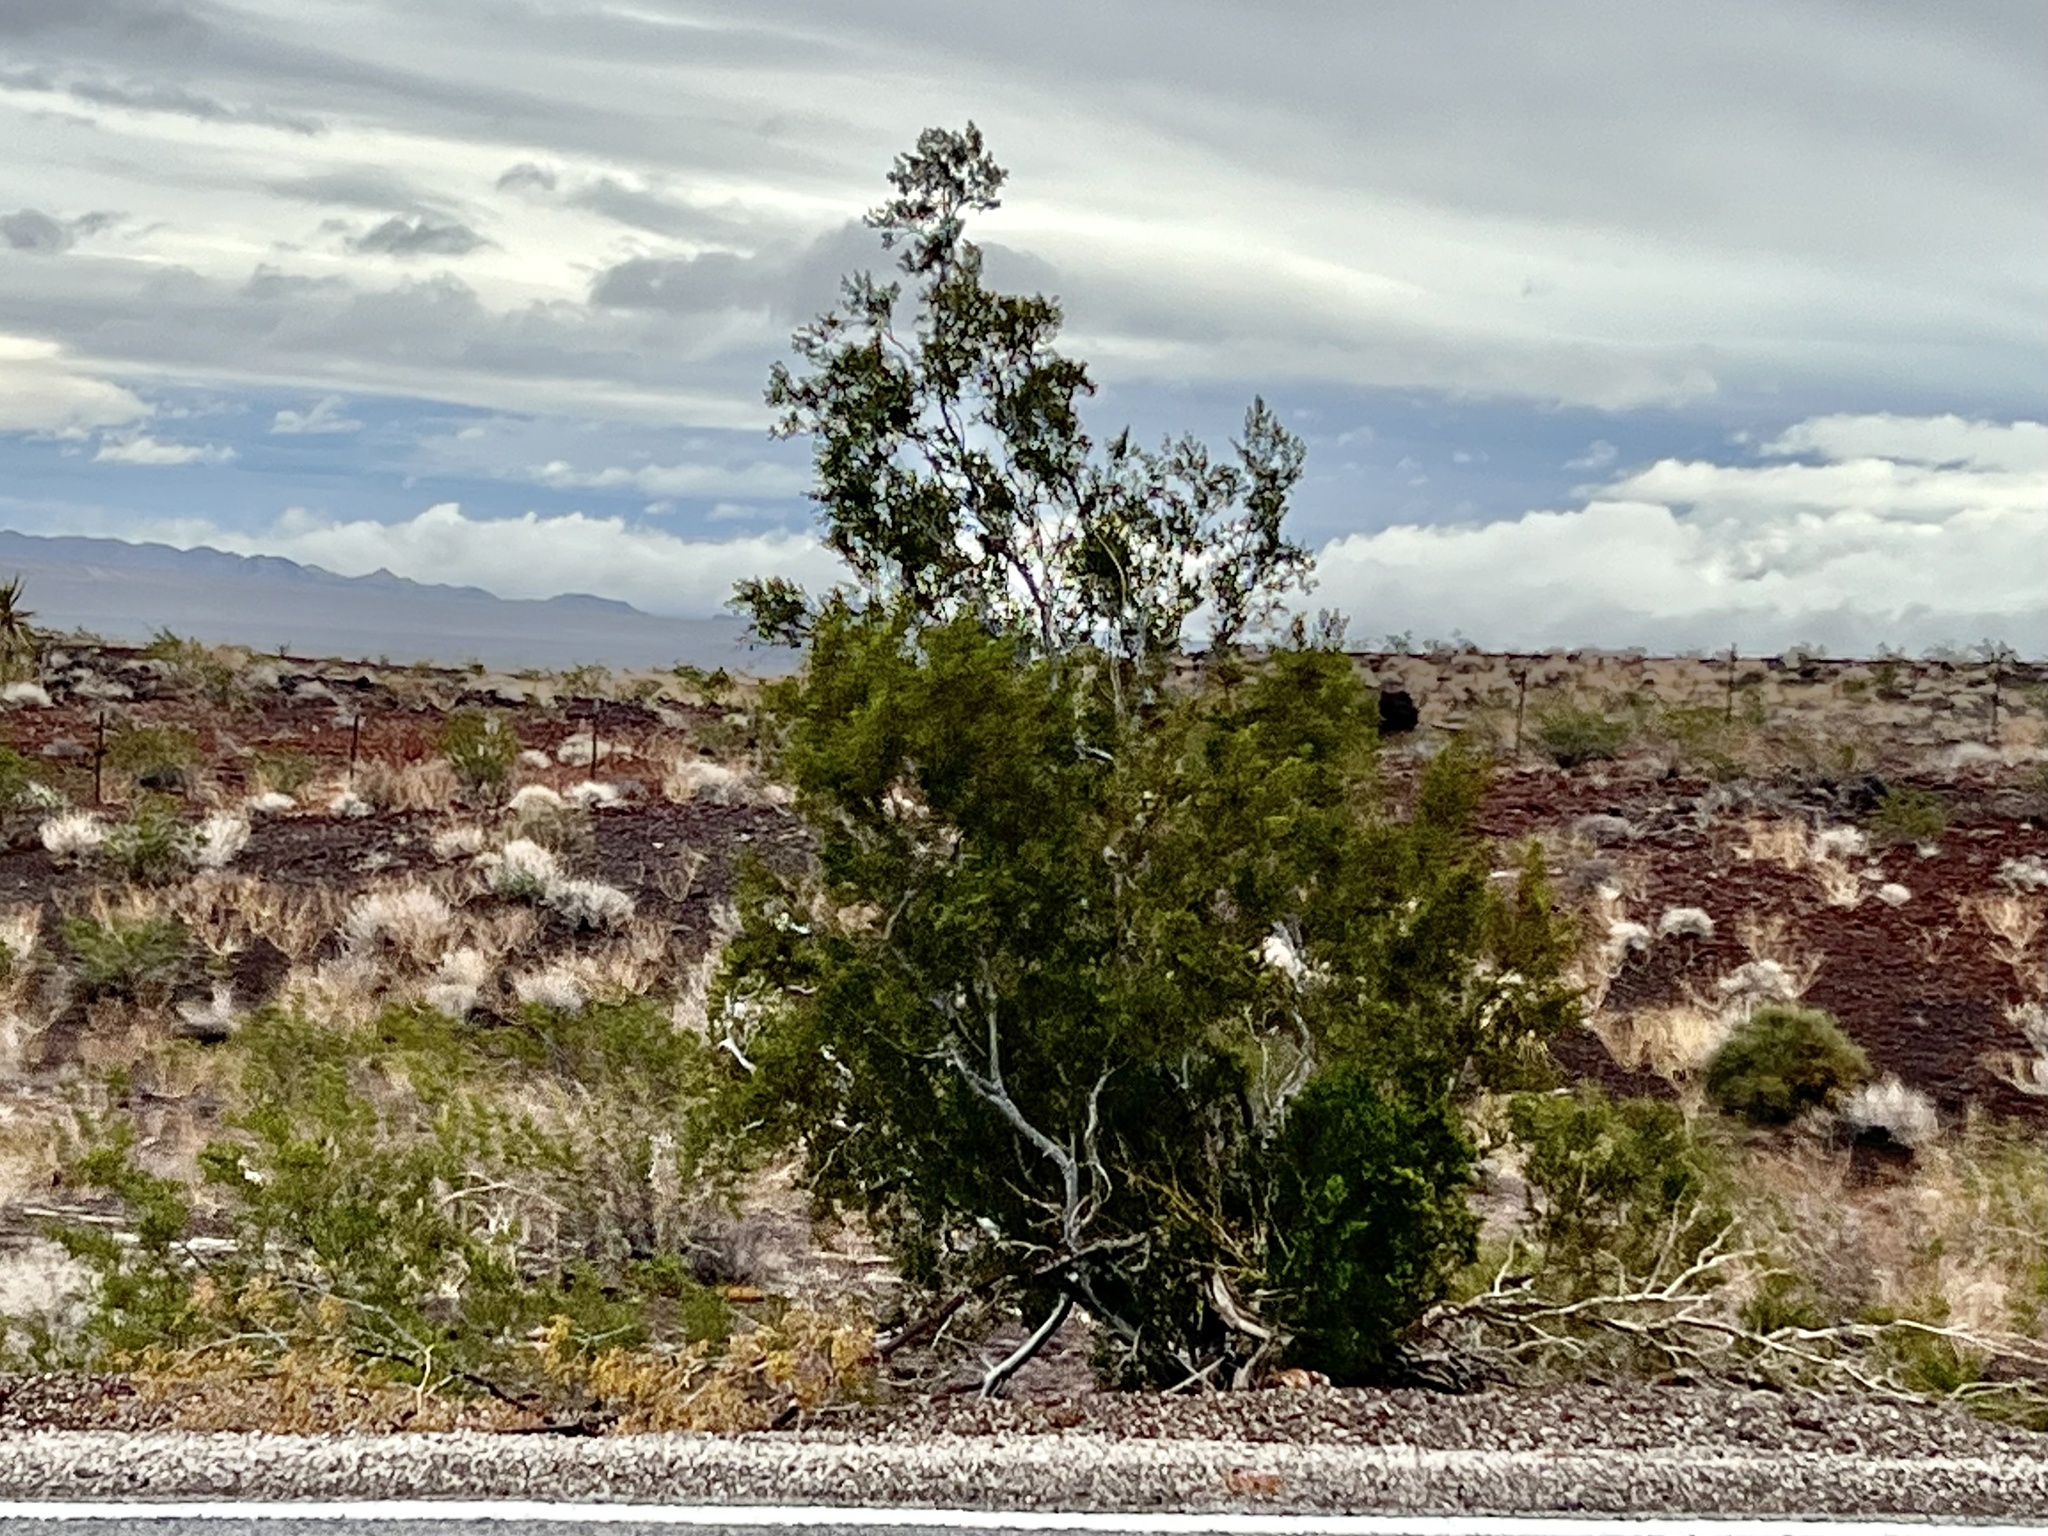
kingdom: Plantae
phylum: Tracheophyta
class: Magnoliopsida
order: Zygophyllales
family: Zygophyllaceae
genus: Larrea
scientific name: Larrea tridentata
